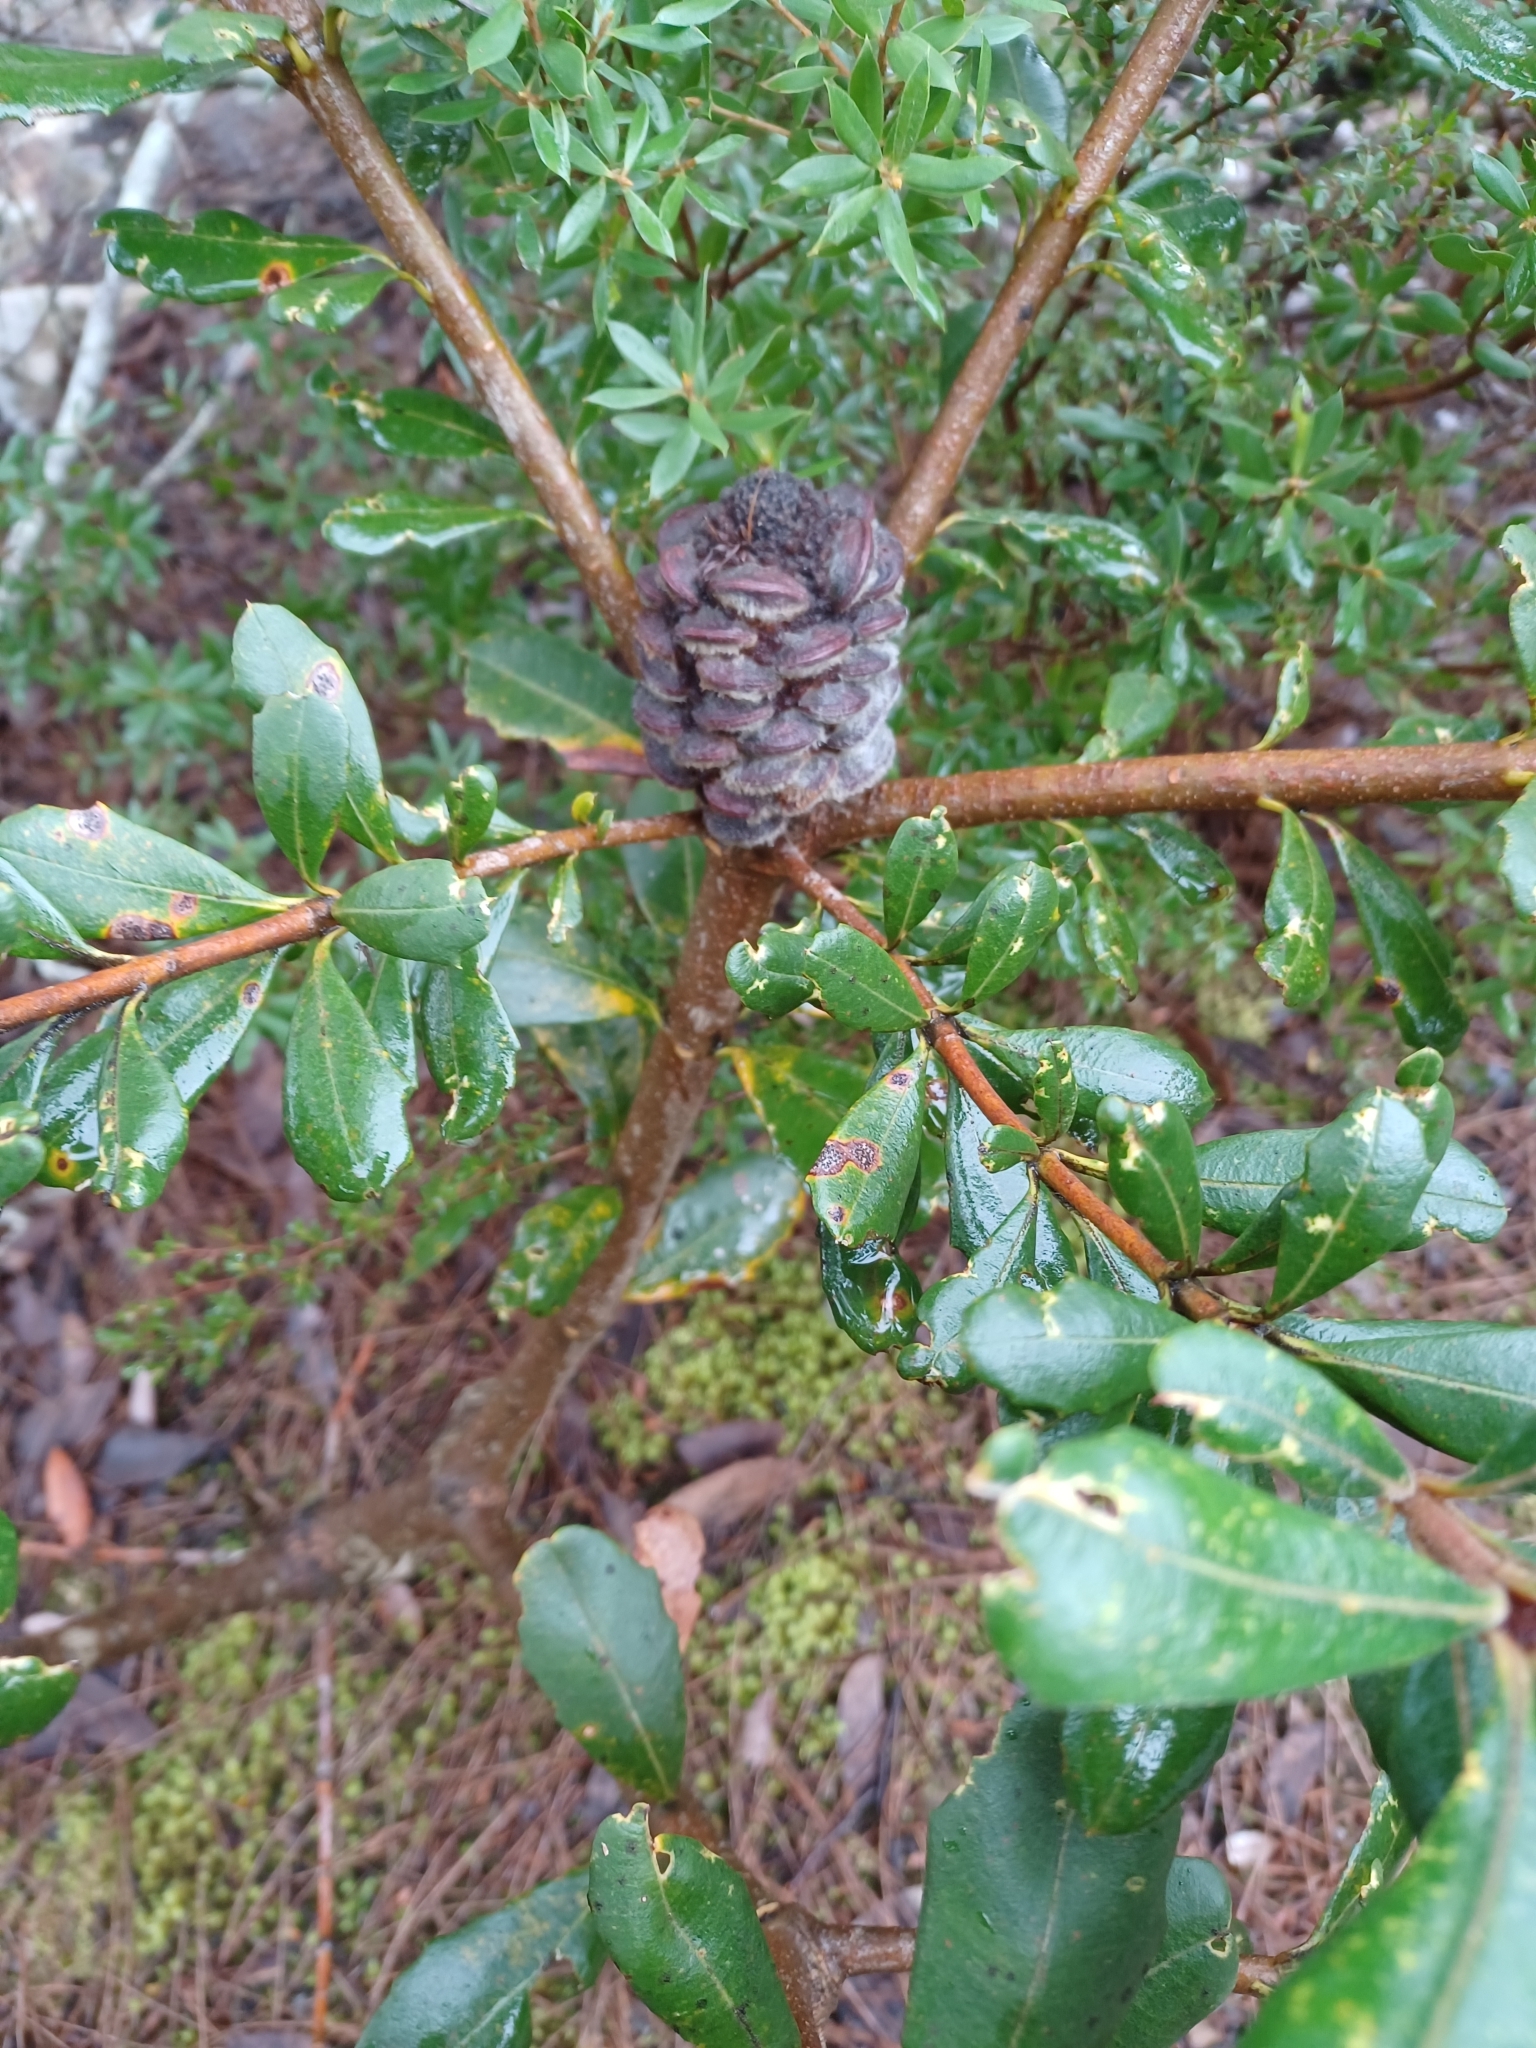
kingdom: Plantae
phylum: Tracheophyta
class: Magnoliopsida
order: Proteales
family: Proteaceae
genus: Banksia
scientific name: Banksia saxicola
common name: Grampians banksia
